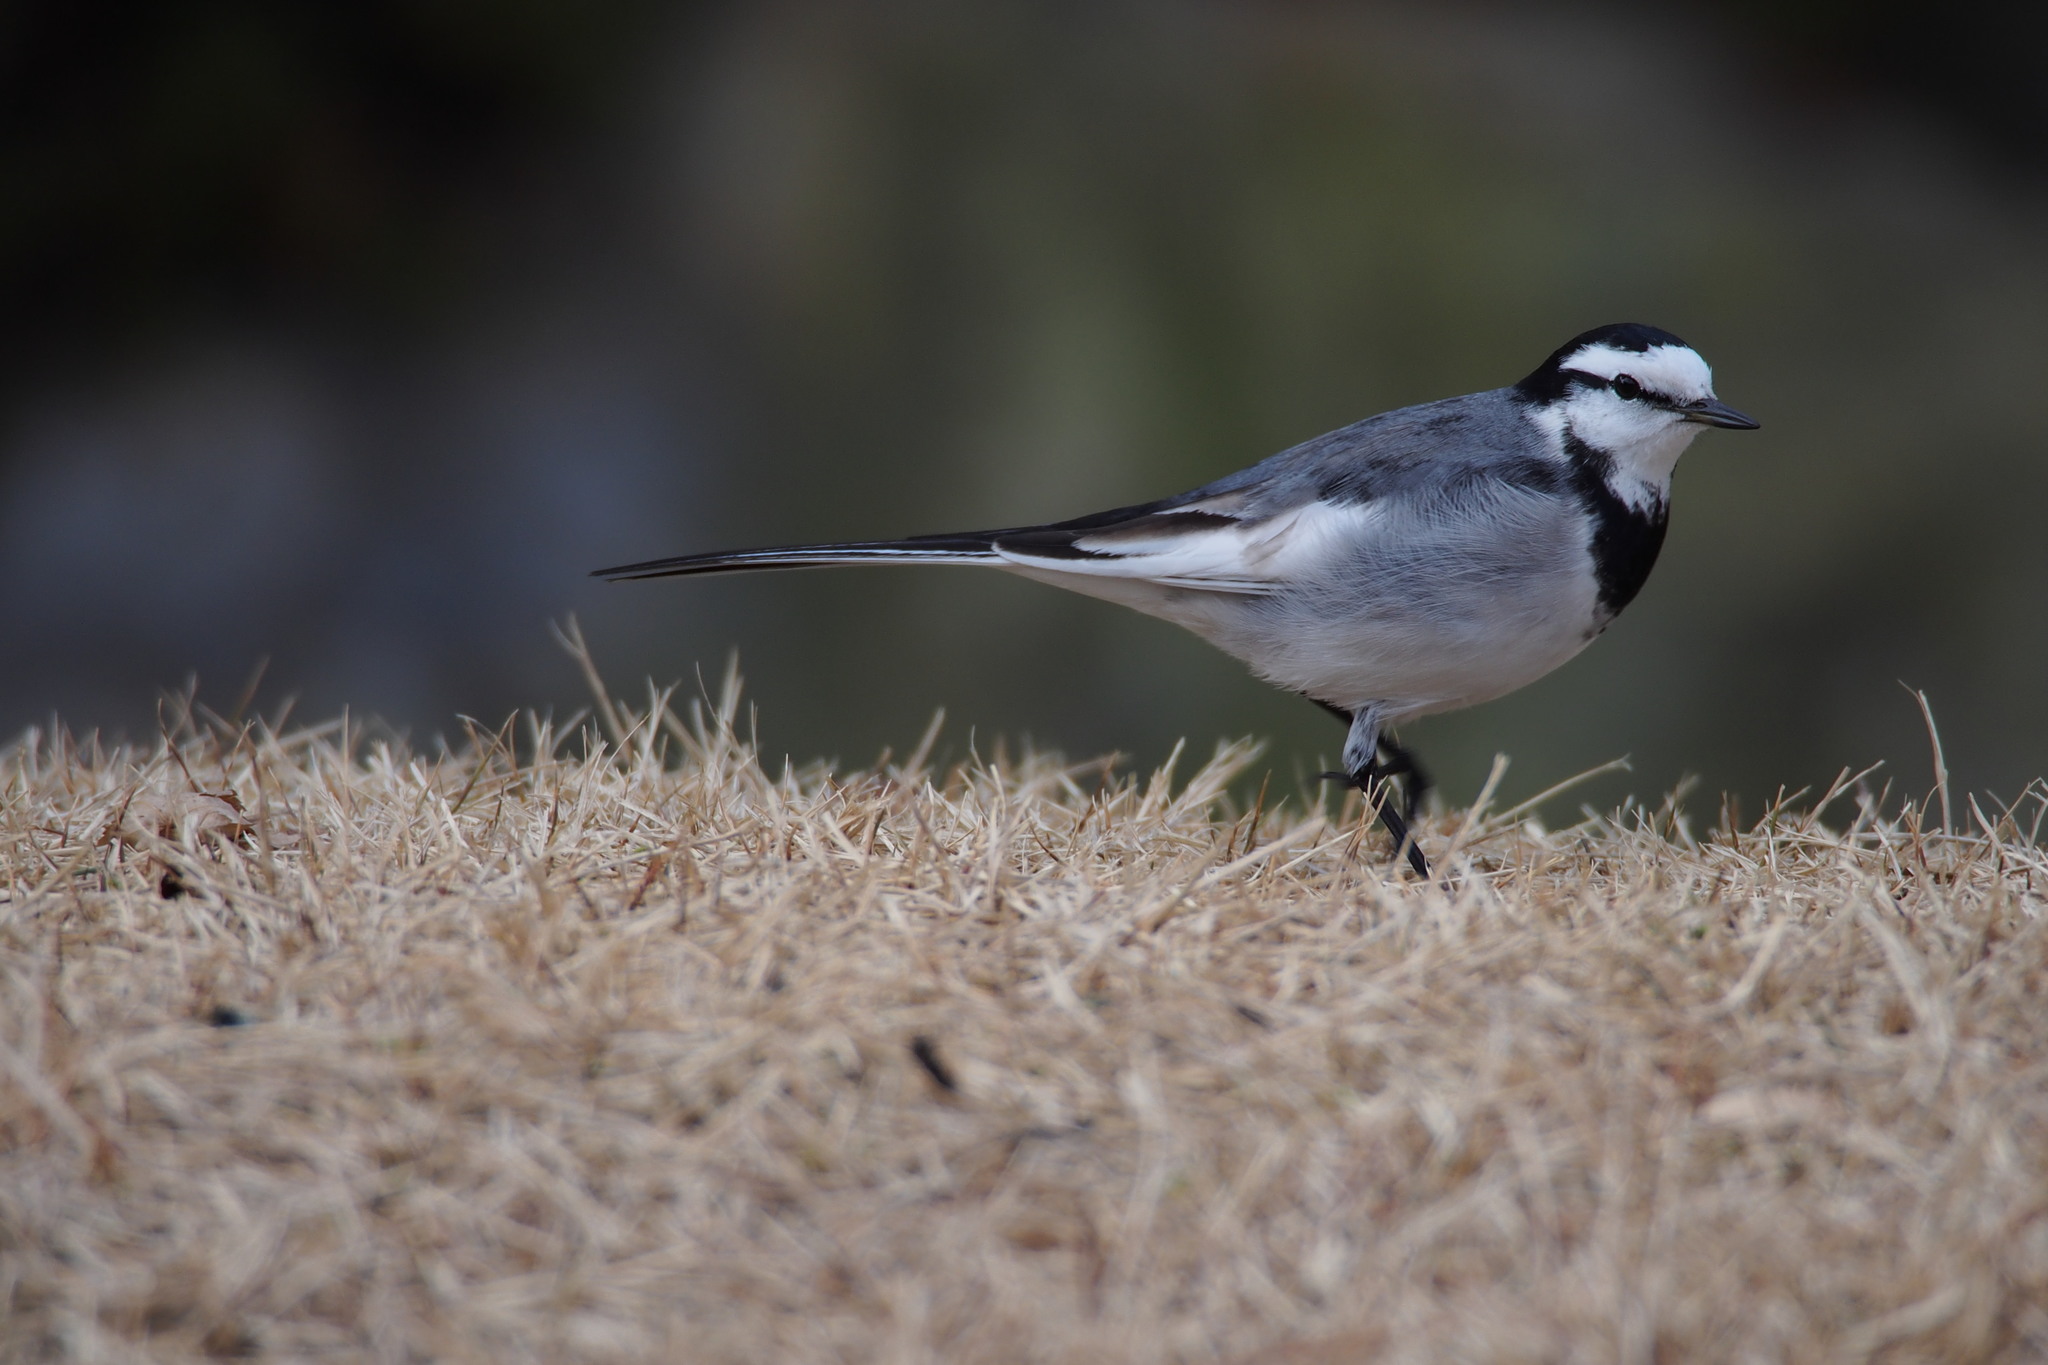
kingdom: Animalia
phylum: Chordata
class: Aves
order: Passeriformes
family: Motacillidae
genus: Motacilla
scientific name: Motacilla alba
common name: White wagtail
